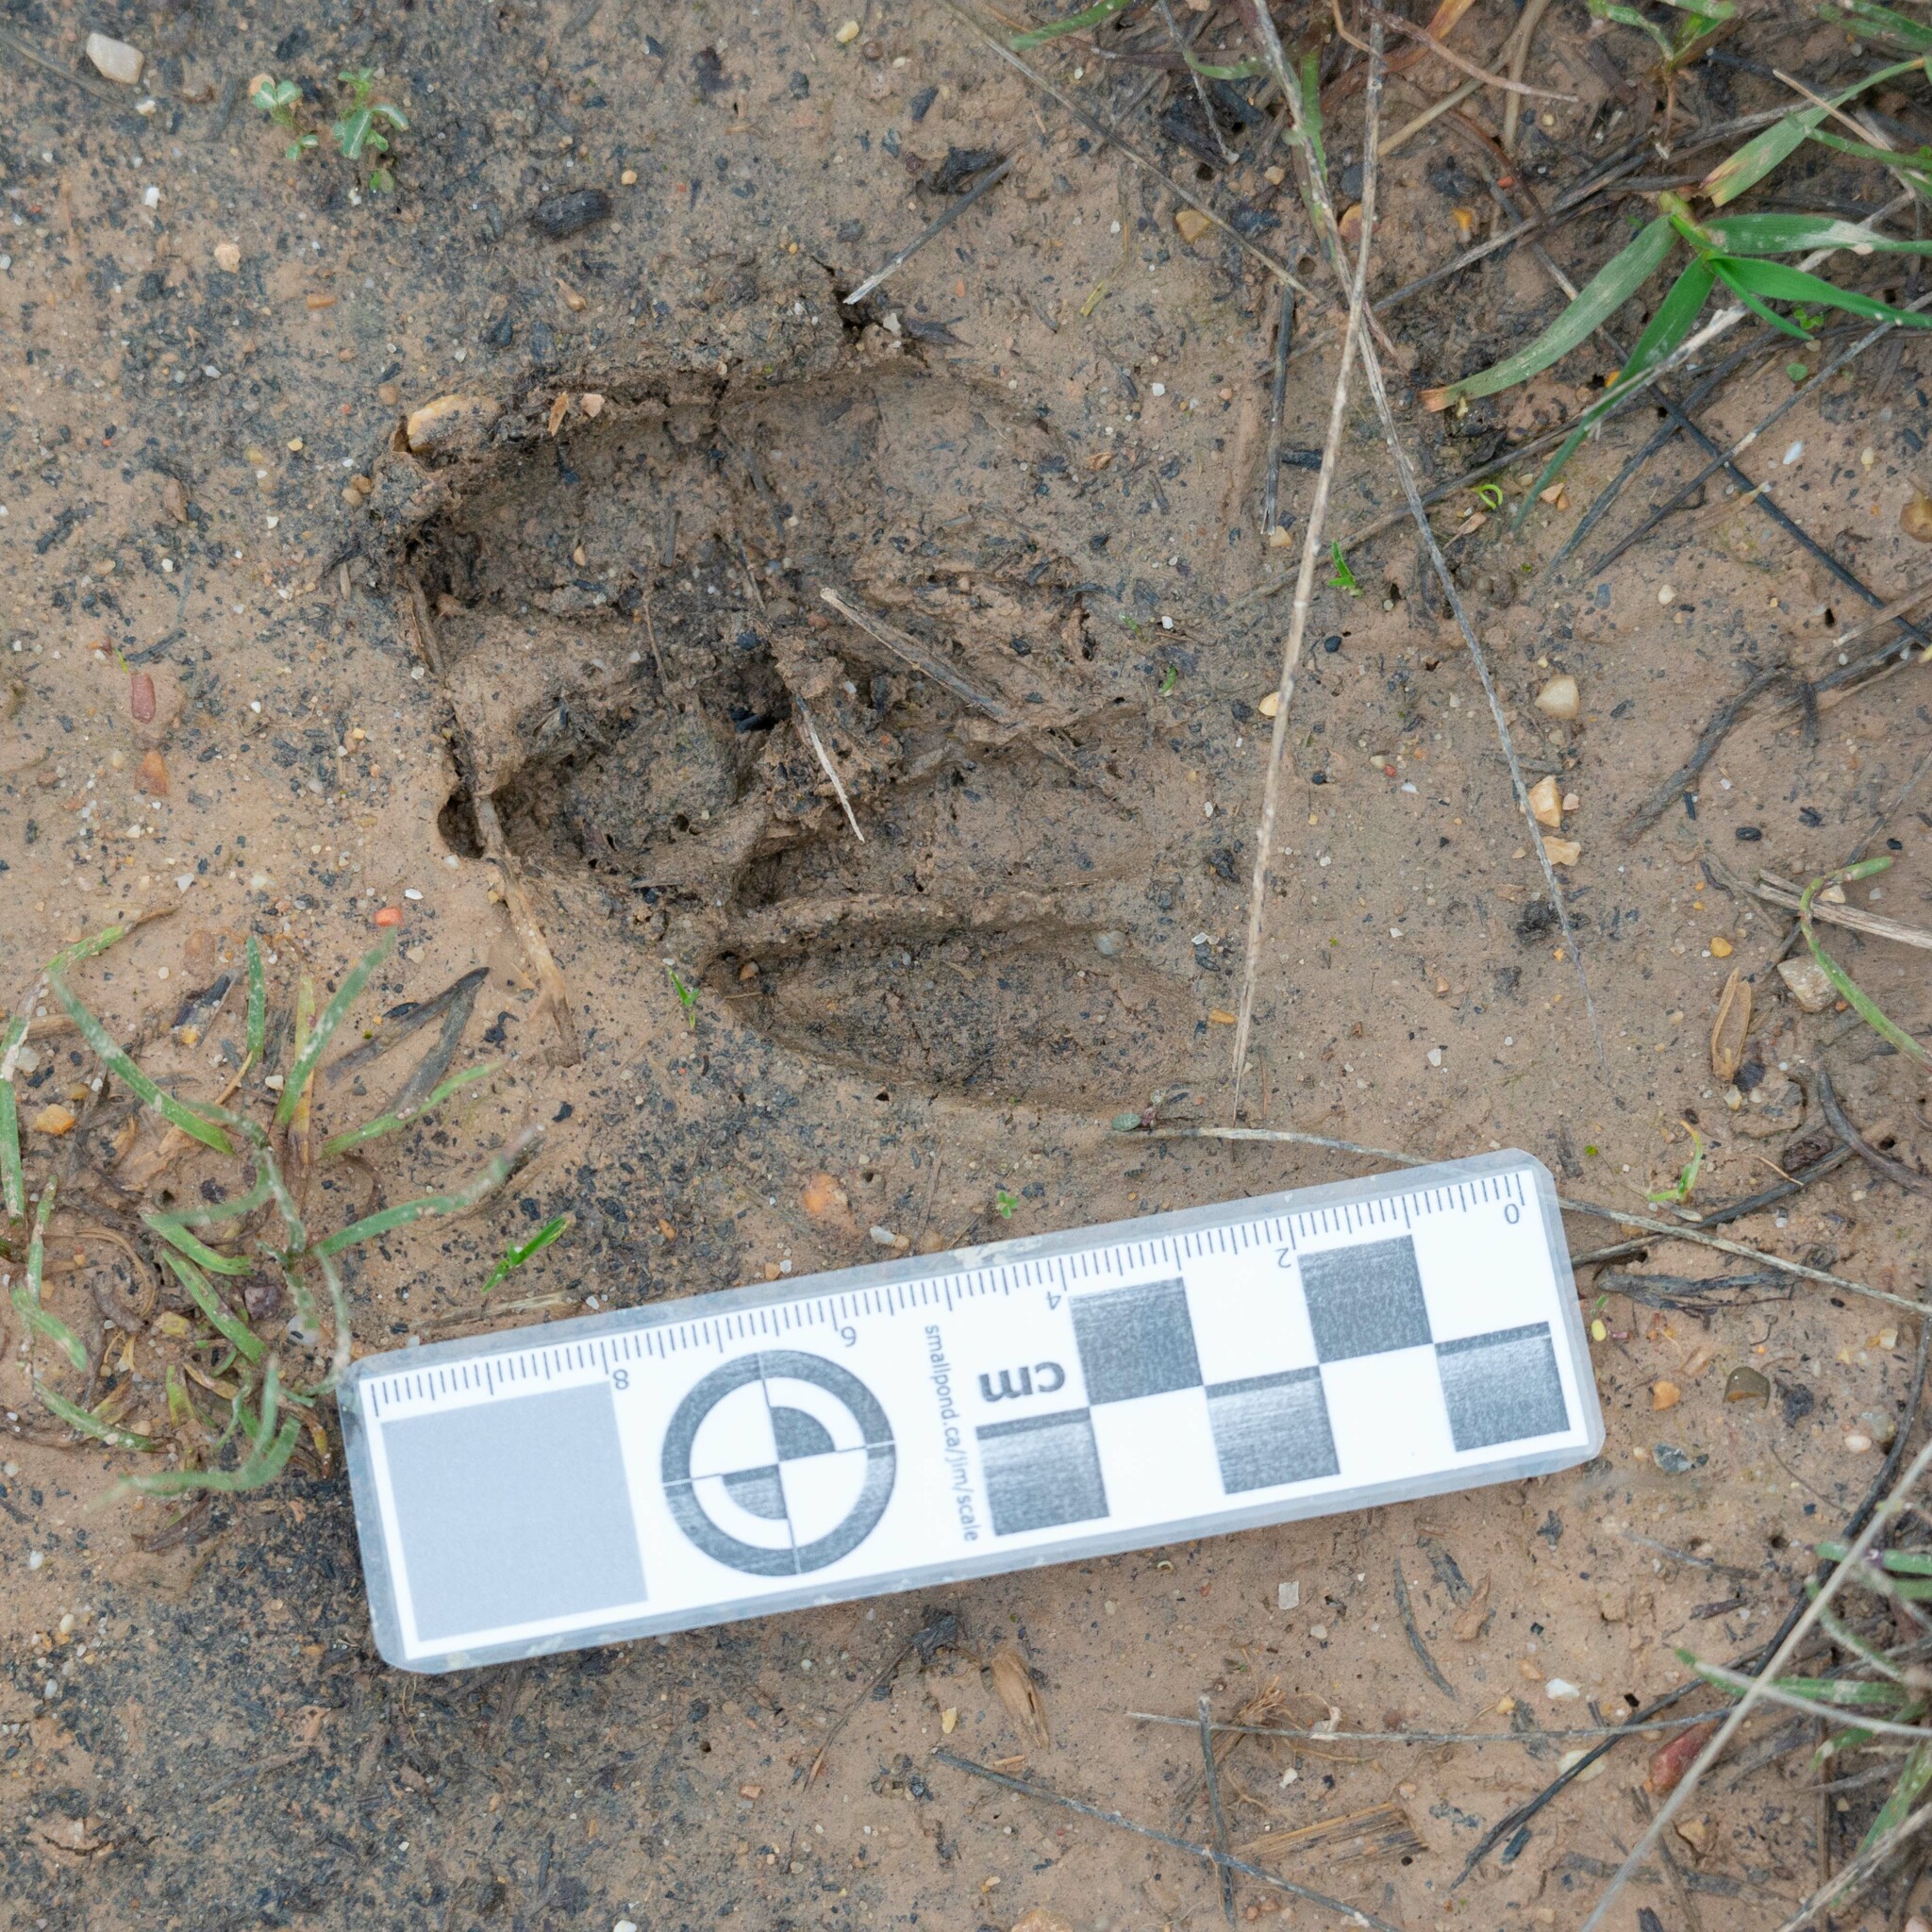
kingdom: Animalia
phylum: Chordata
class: Mammalia
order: Artiodactyla
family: Cervidae
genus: Capreolus
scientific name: Capreolus capreolus
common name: Western roe deer
